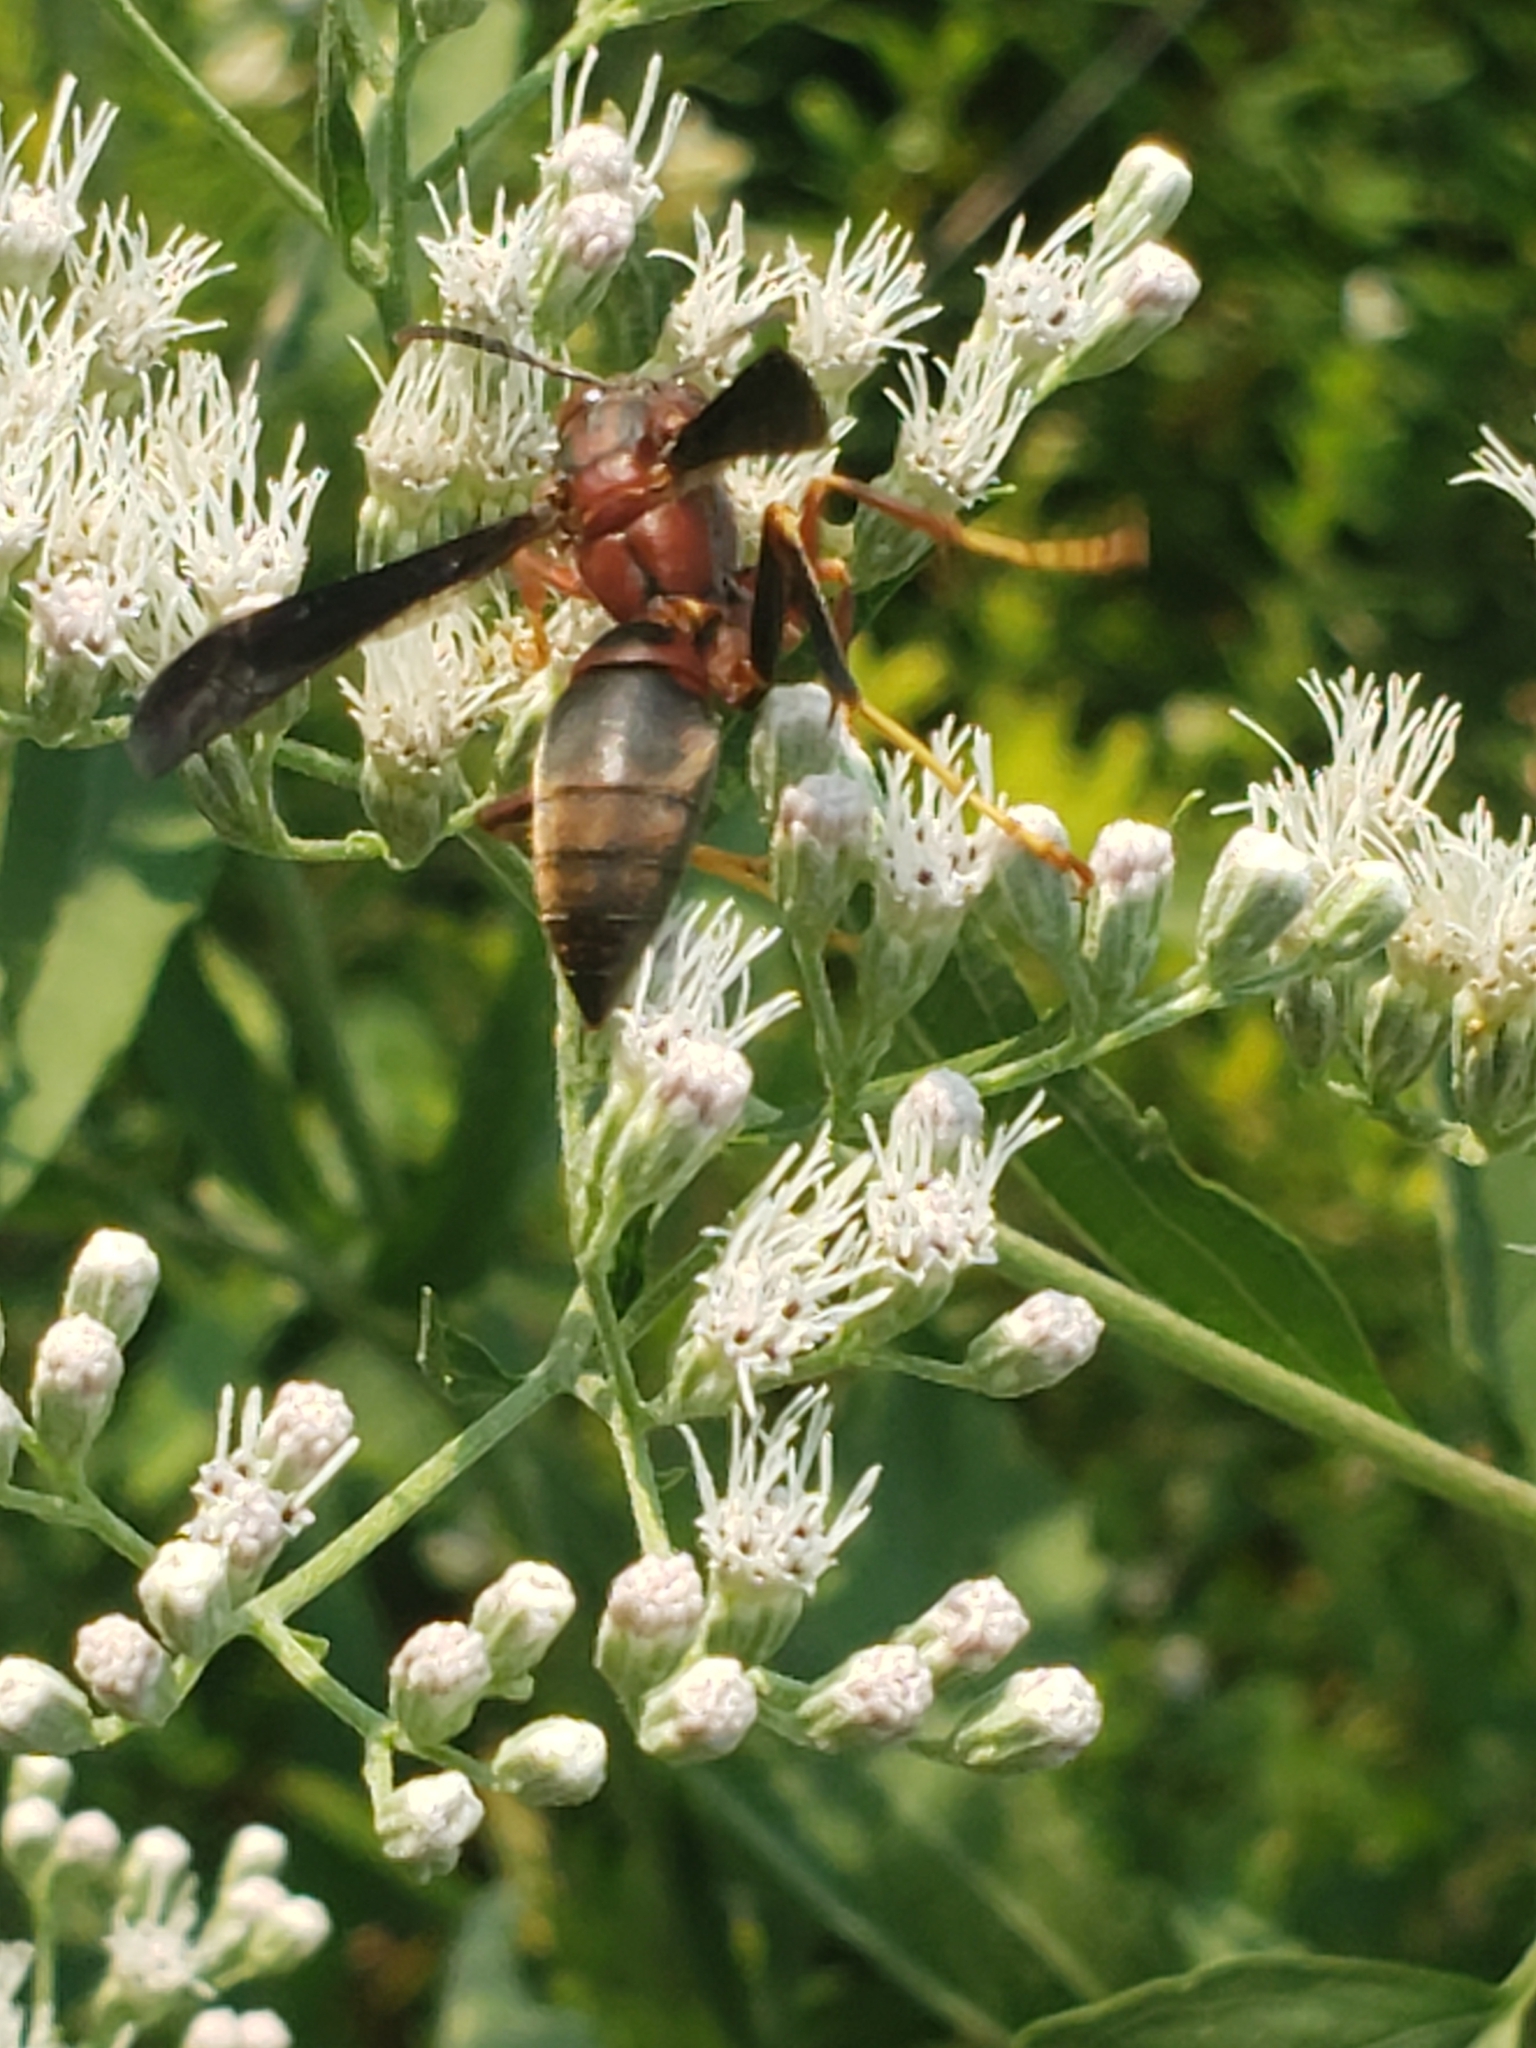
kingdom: Animalia
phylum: Arthropoda
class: Insecta
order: Hymenoptera
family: Eumenidae
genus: Polistes
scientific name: Polistes metricus
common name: Metric paper wasp
